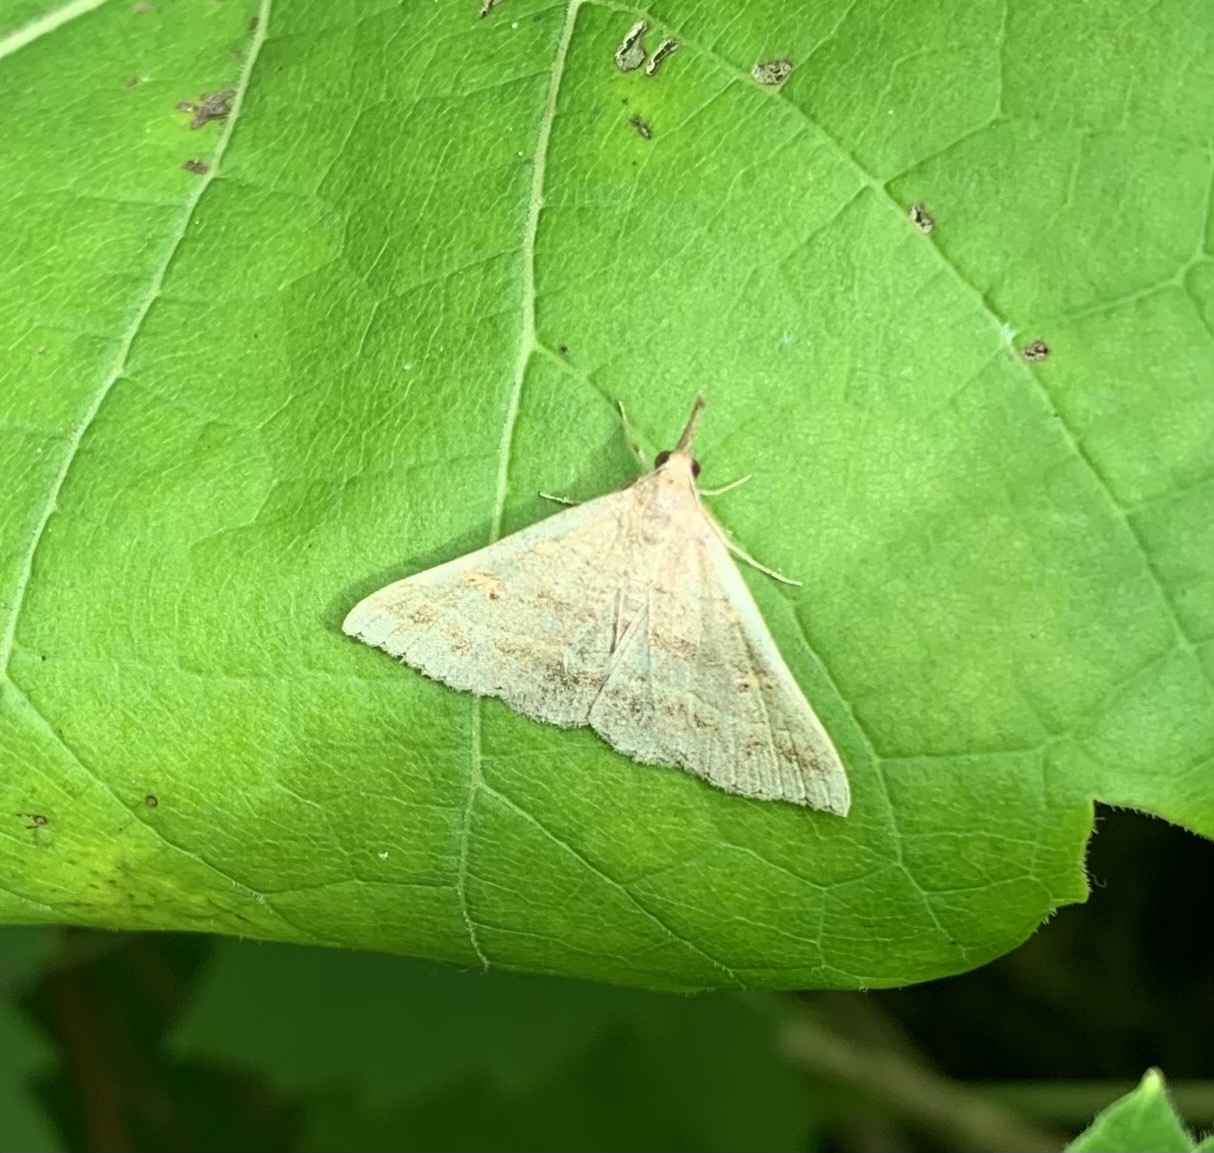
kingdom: Animalia
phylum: Arthropoda
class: Insecta
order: Lepidoptera
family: Erebidae
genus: Renia
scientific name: Renia flavipunctalis
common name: Yellow-spotted renia moth
